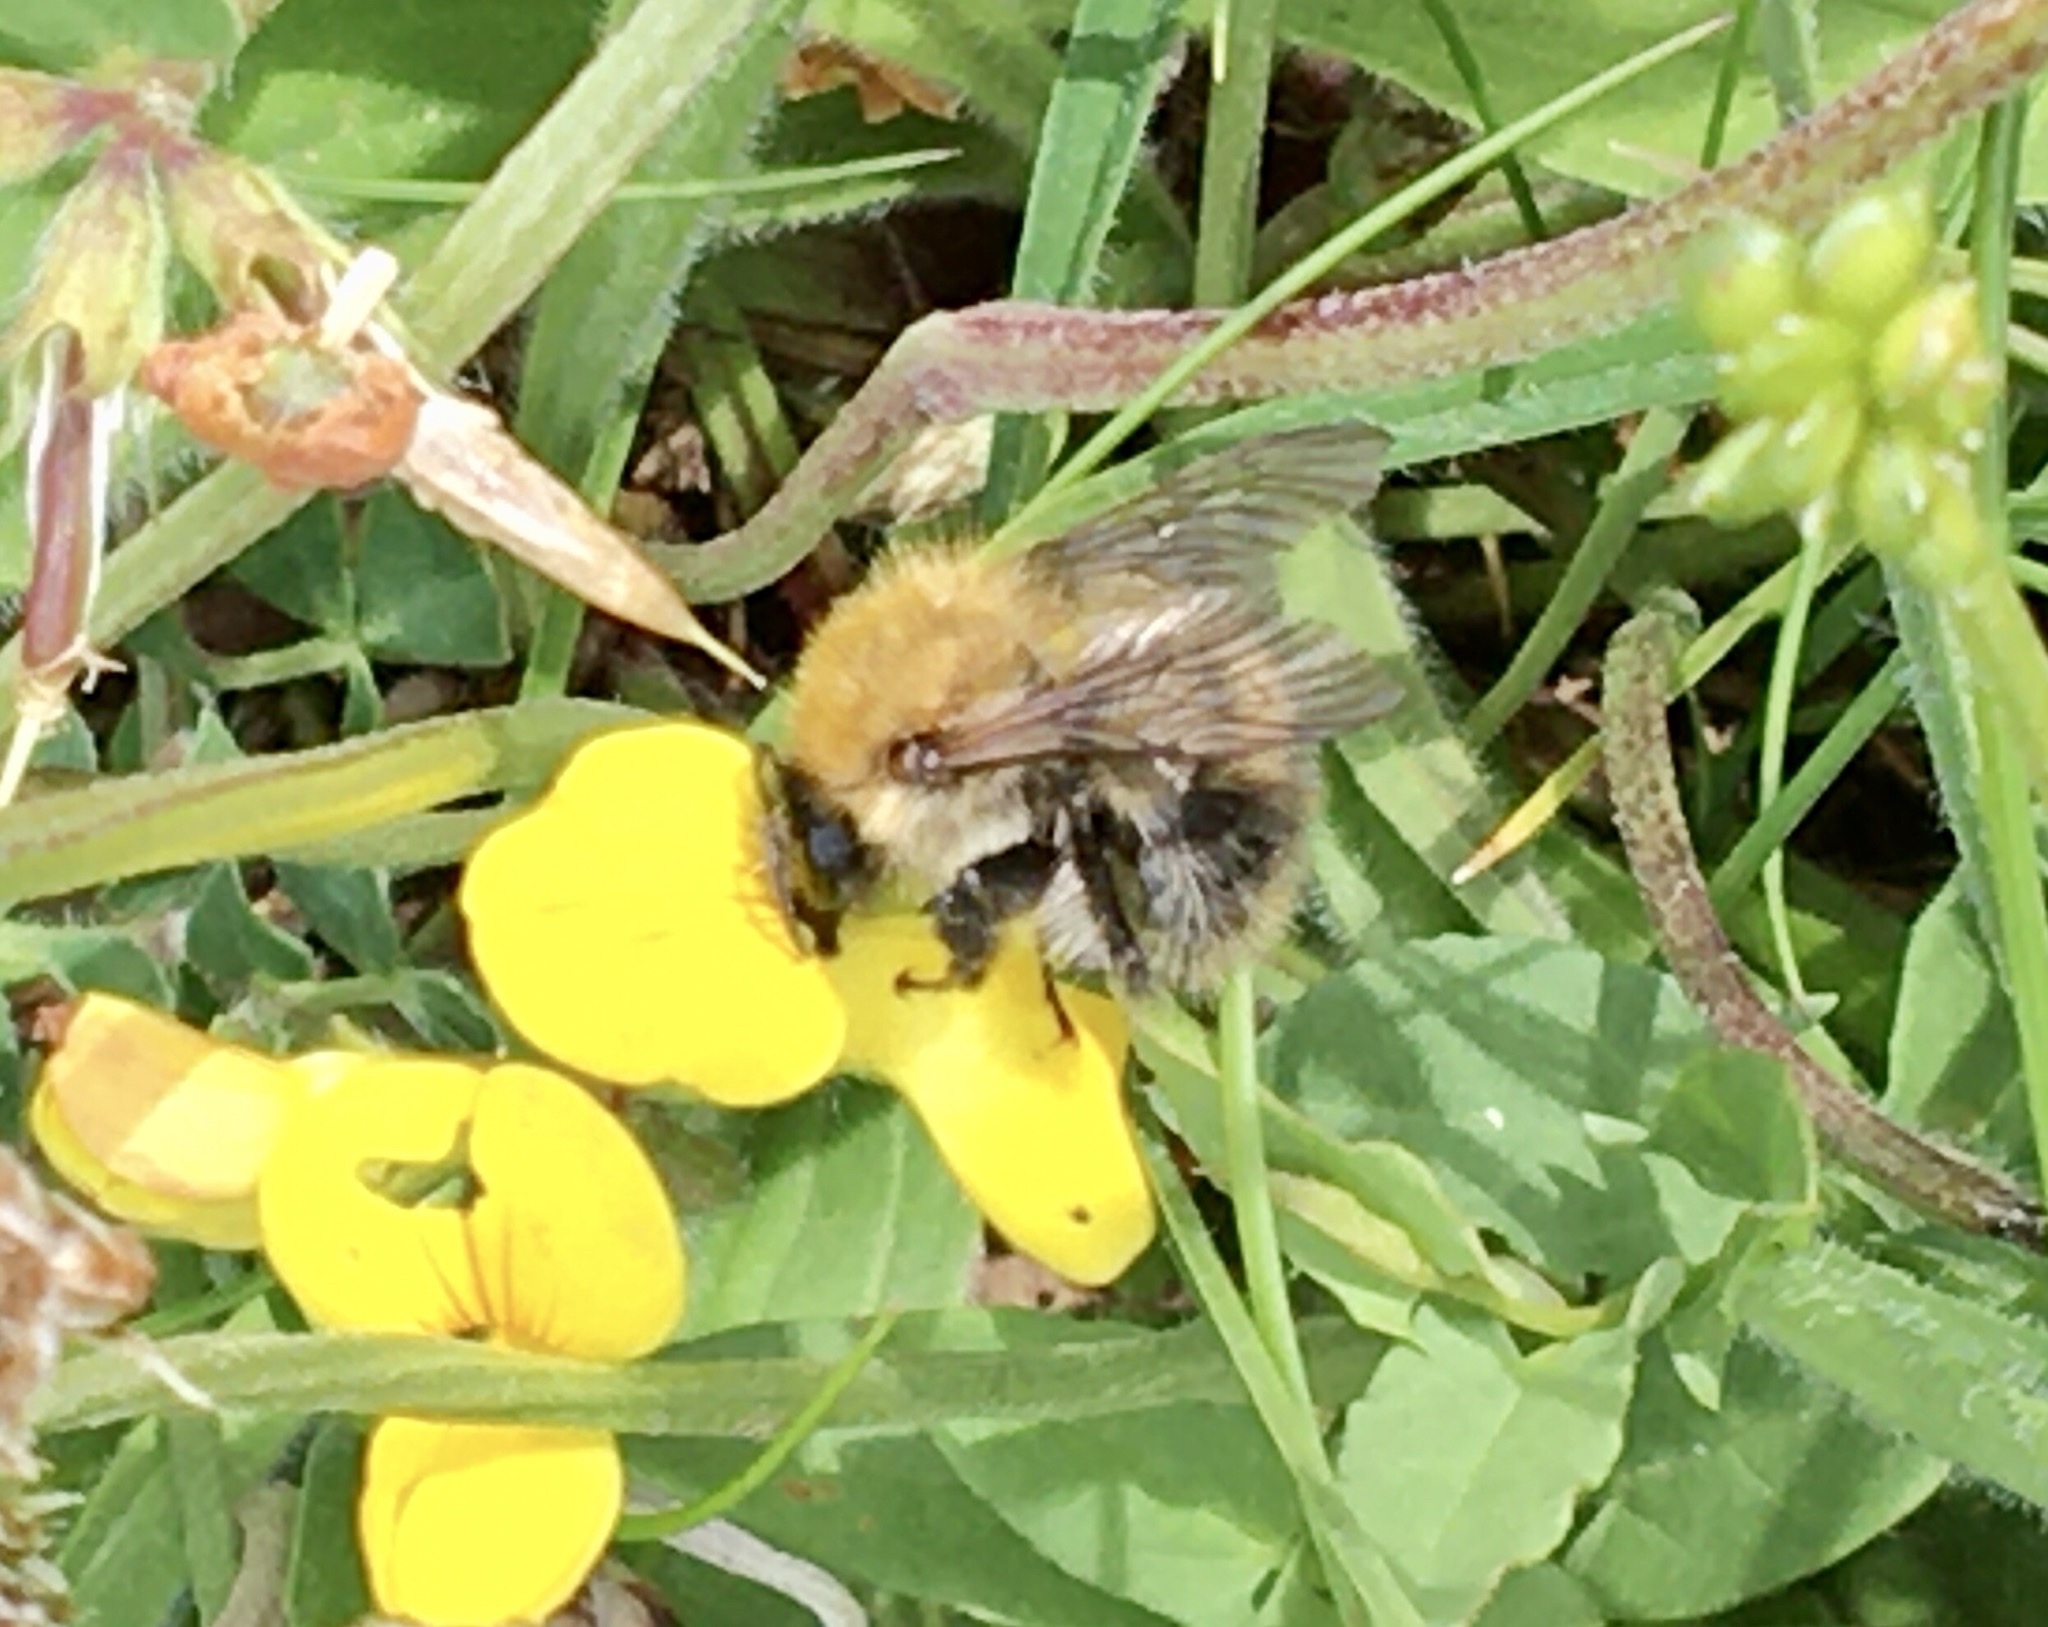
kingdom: Animalia
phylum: Arthropoda
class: Insecta
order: Hymenoptera
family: Apidae
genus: Bombus
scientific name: Bombus pascuorum
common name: Common carder bee
